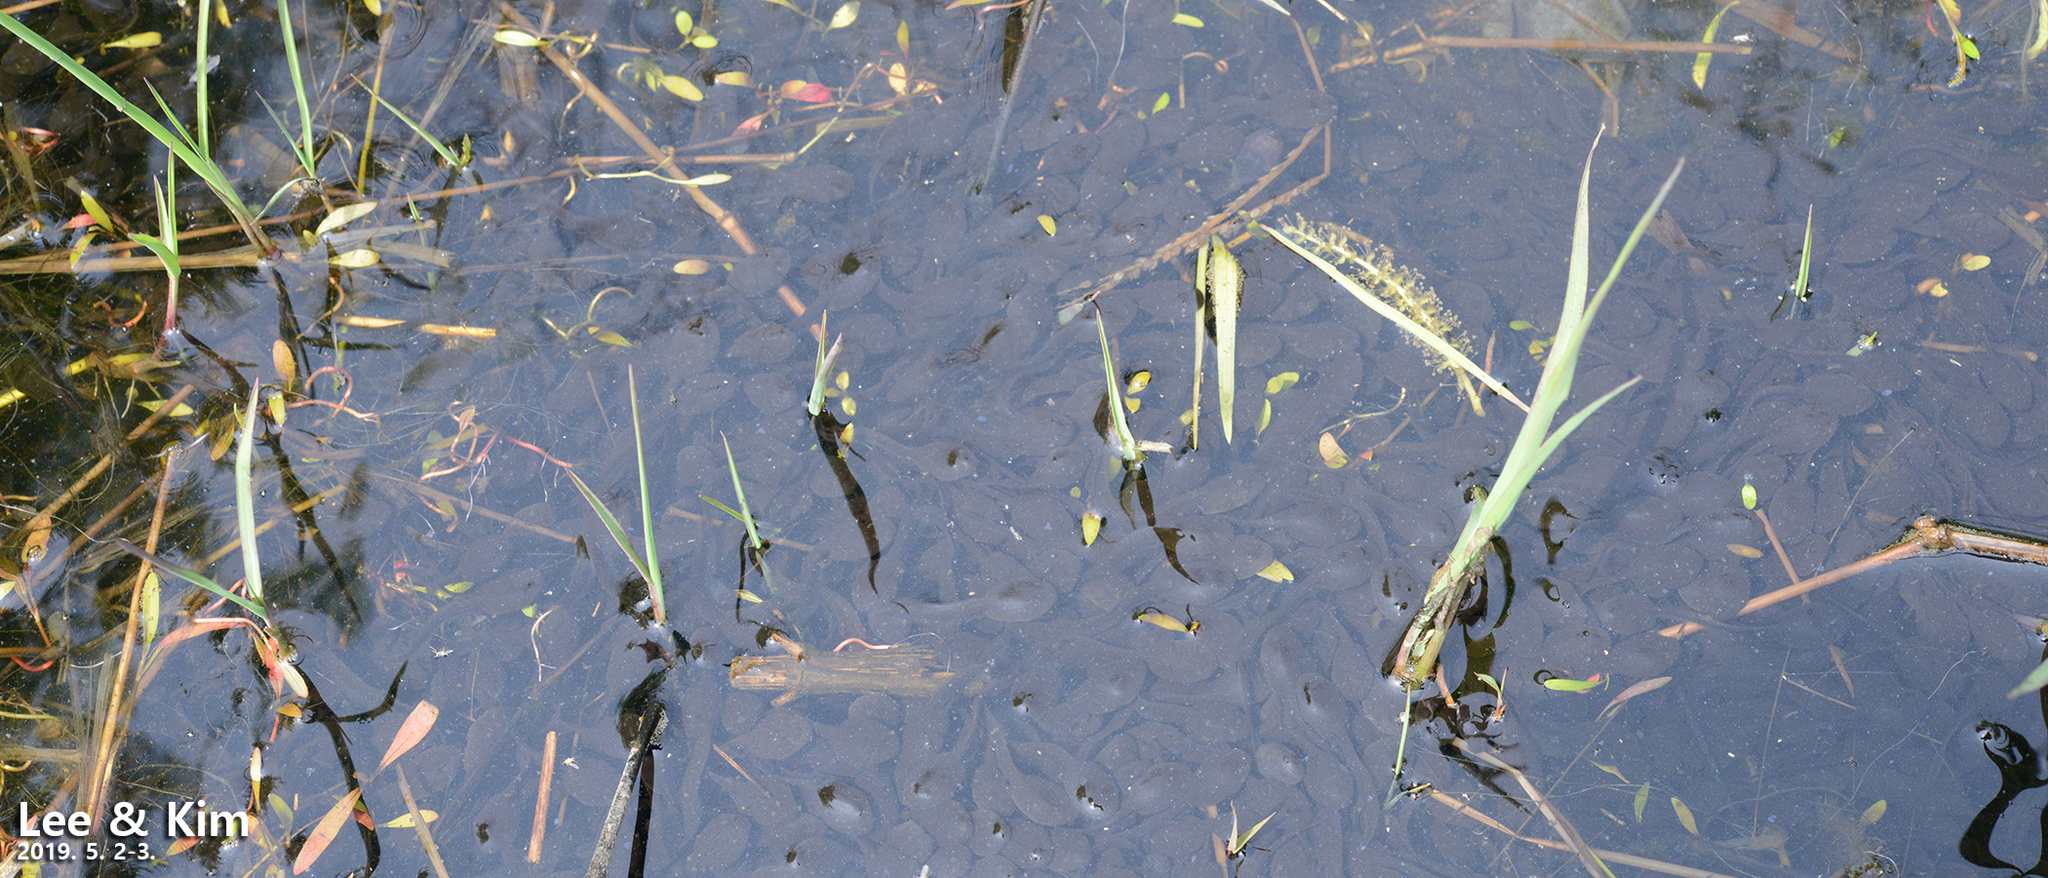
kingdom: Animalia
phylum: Chordata
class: Amphibia
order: Anura
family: Bufonidae
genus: Bufo
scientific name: Bufo gargarizans
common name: Asiatic toad
